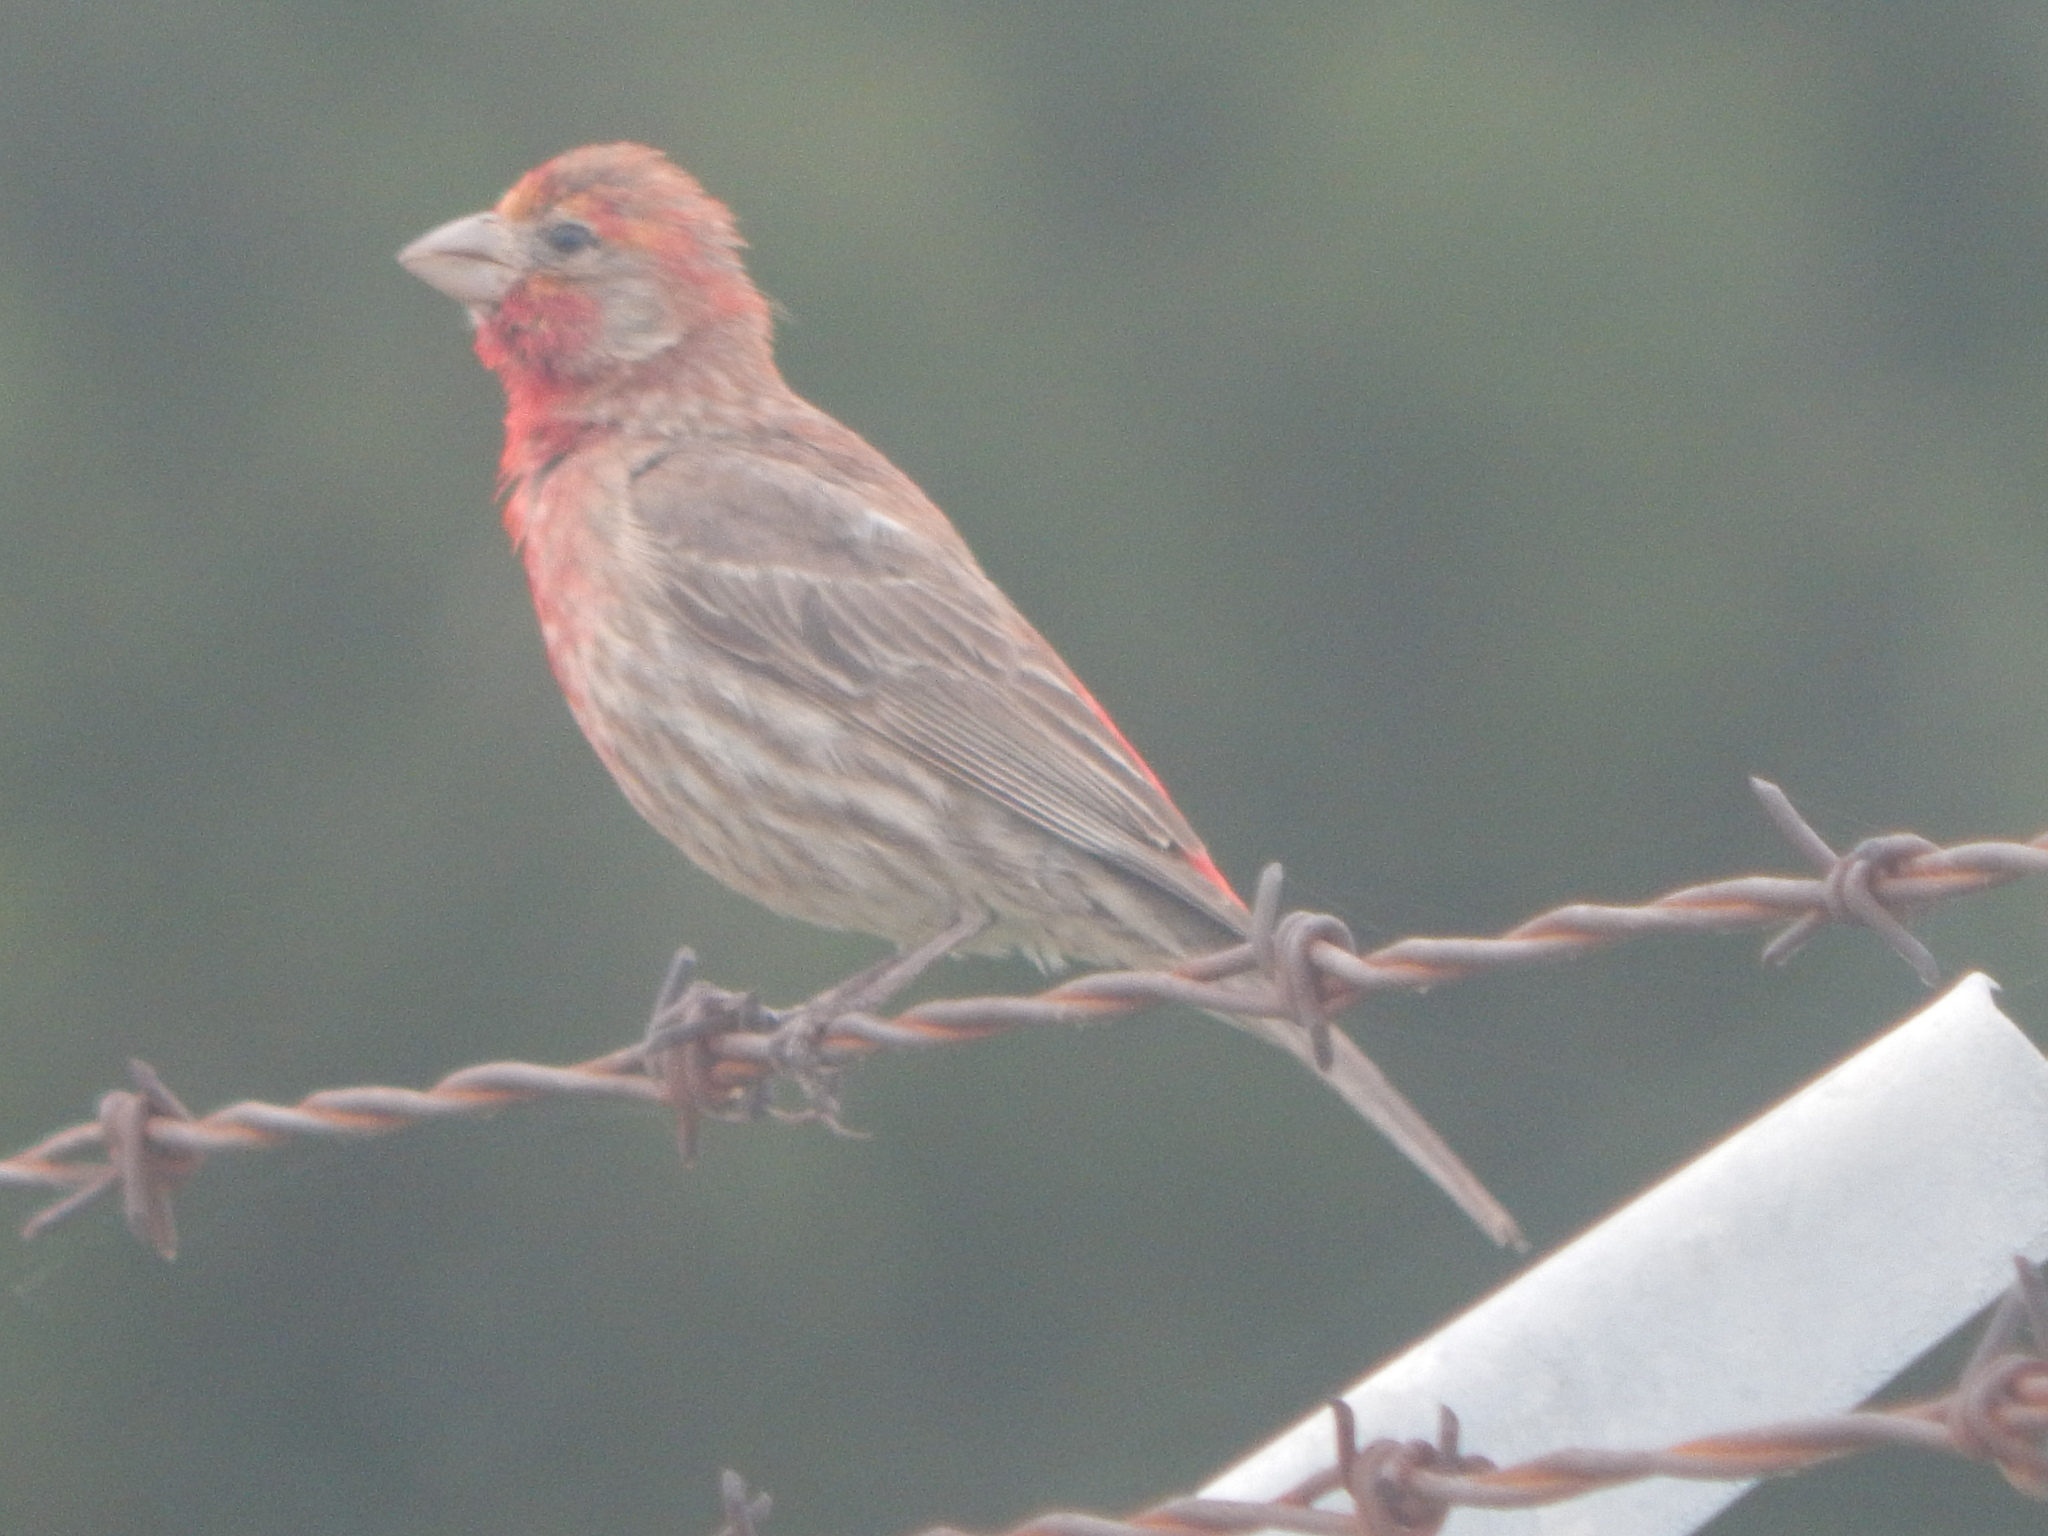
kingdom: Animalia
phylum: Chordata
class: Aves
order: Passeriformes
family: Fringillidae
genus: Haemorhous
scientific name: Haemorhous mexicanus
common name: House finch
